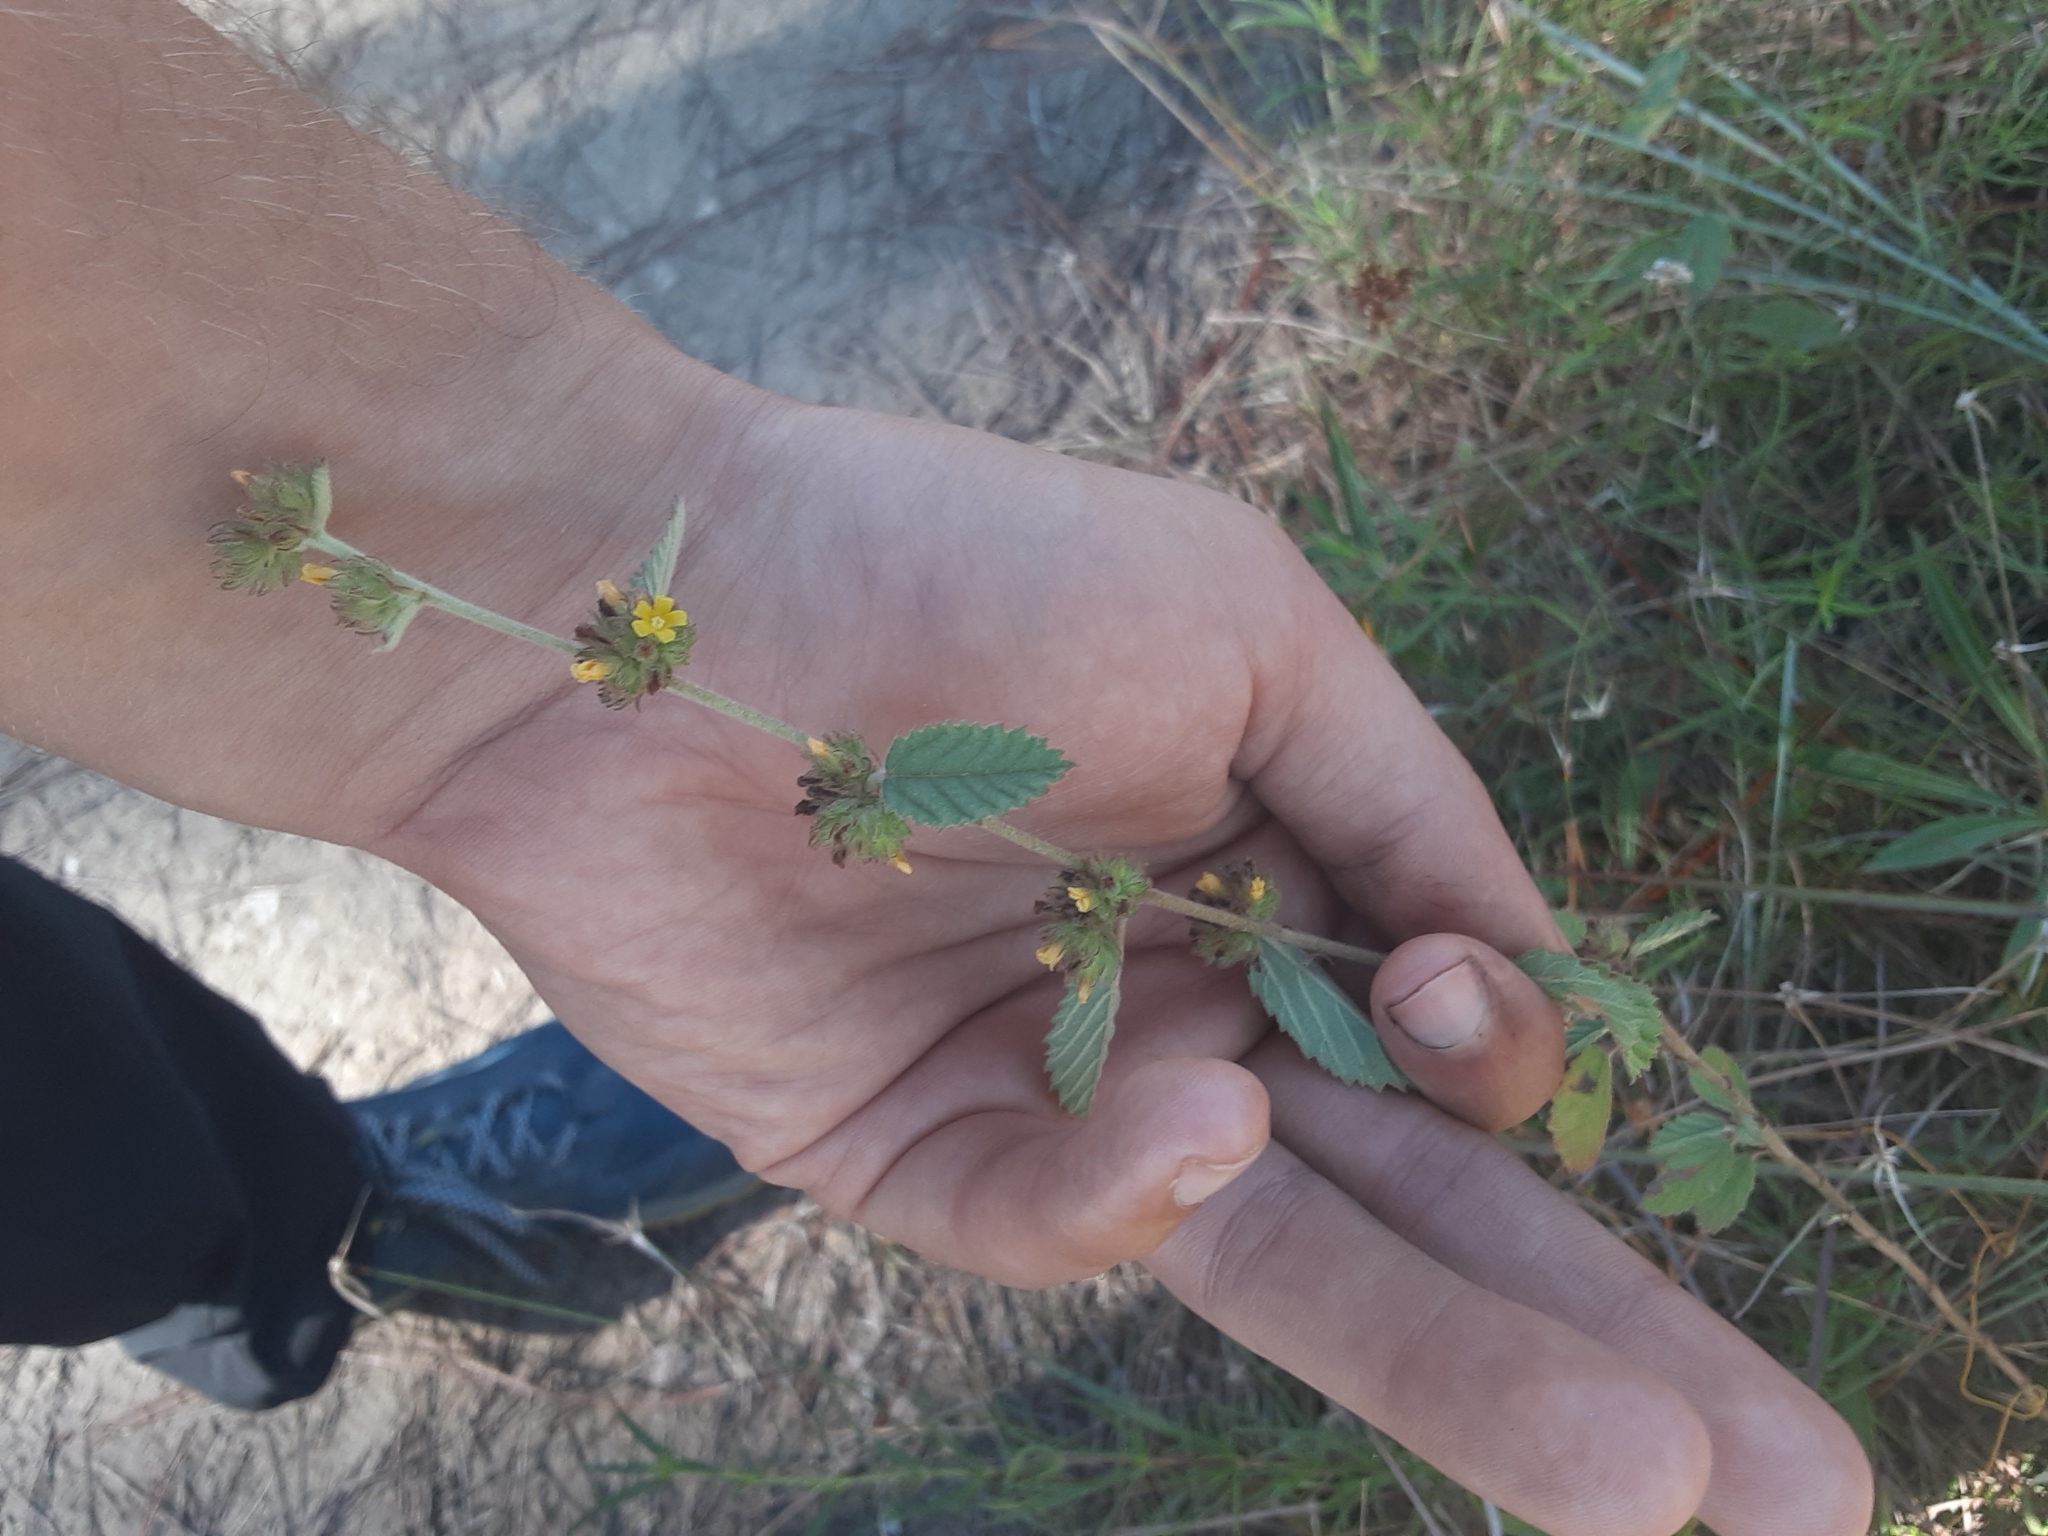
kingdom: Plantae
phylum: Tracheophyta
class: Magnoliopsida
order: Malvales
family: Malvaceae
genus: Waltheria
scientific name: Waltheria indica
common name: Leather-coat
